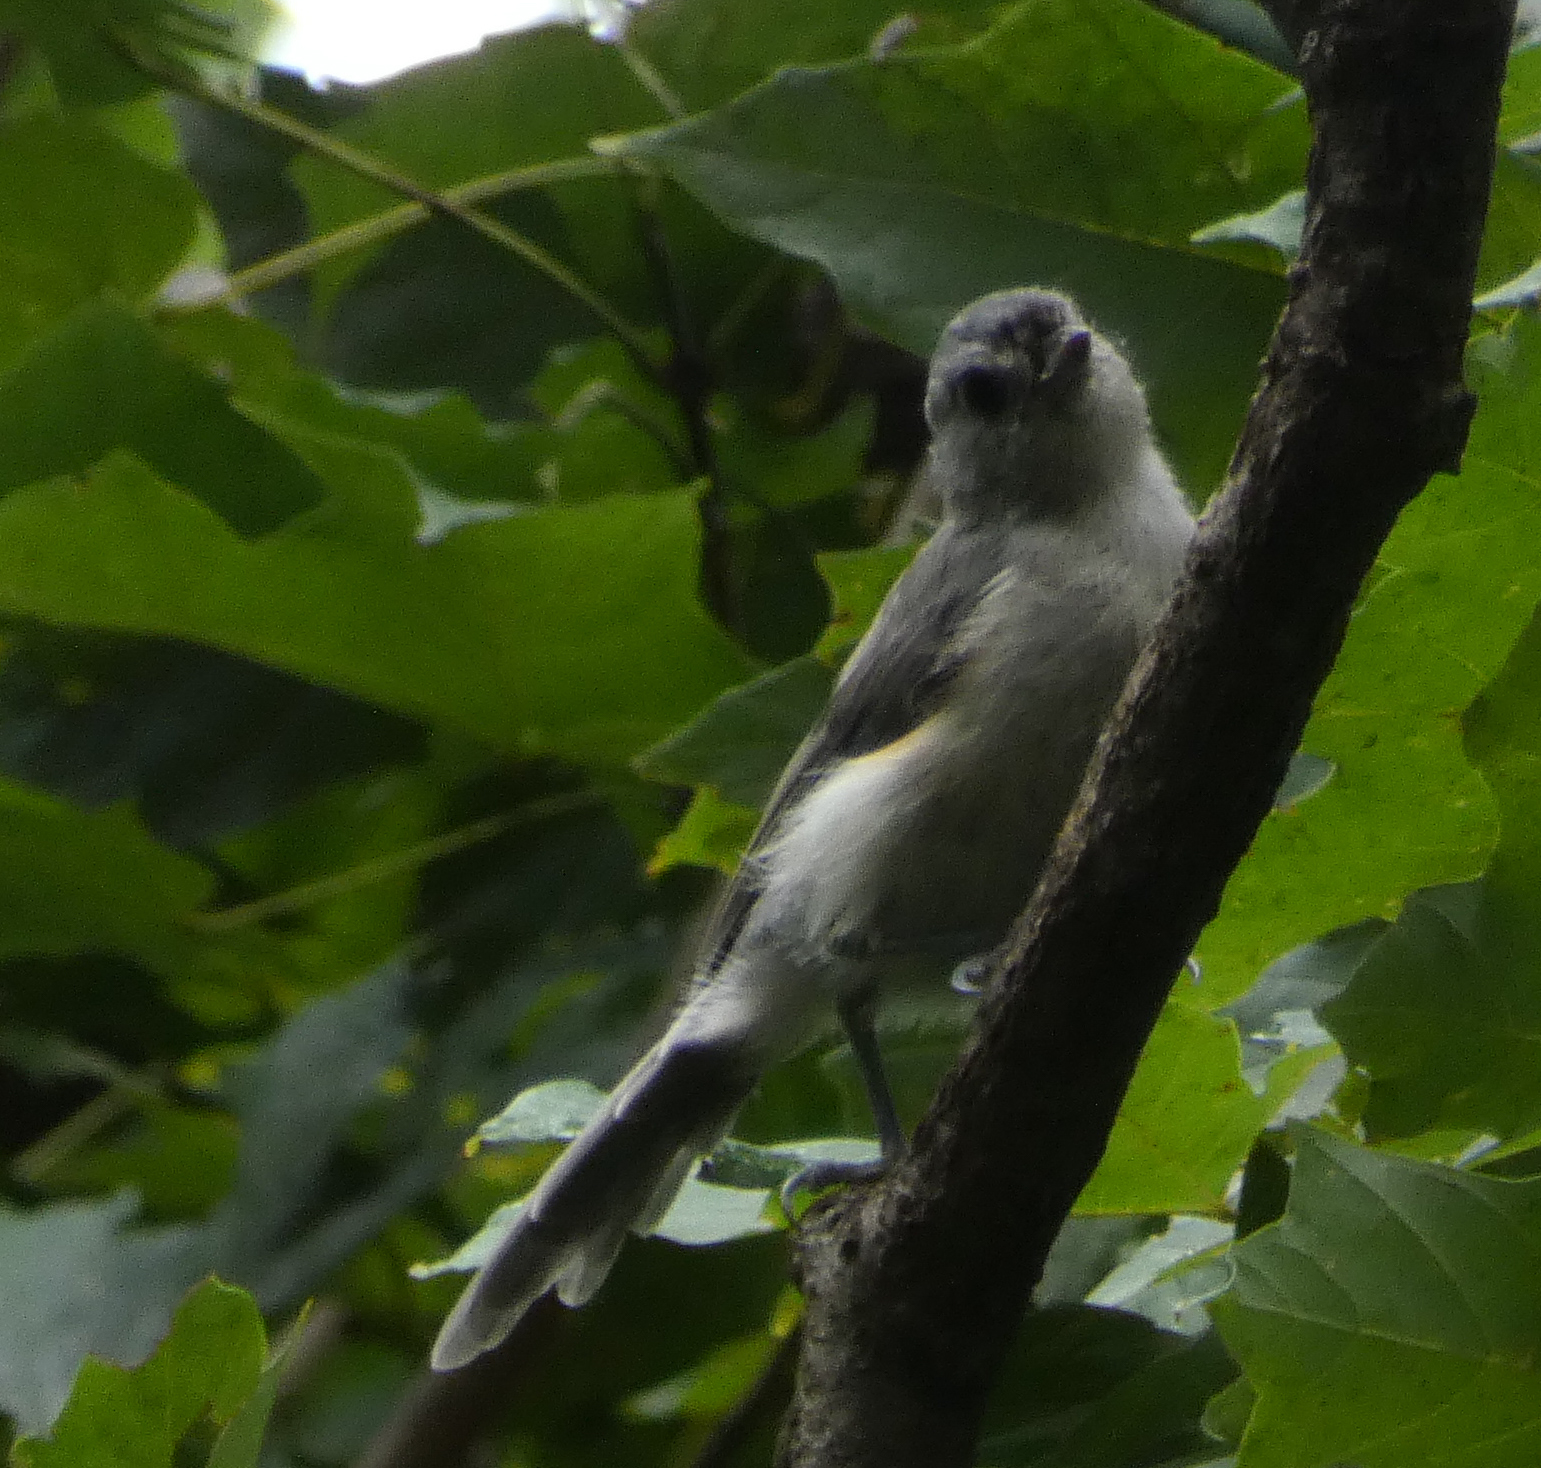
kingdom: Animalia
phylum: Chordata
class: Aves
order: Passeriformes
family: Paridae
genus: Baeolophus
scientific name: Baeolophus bicolor
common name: Tufted titmouse
